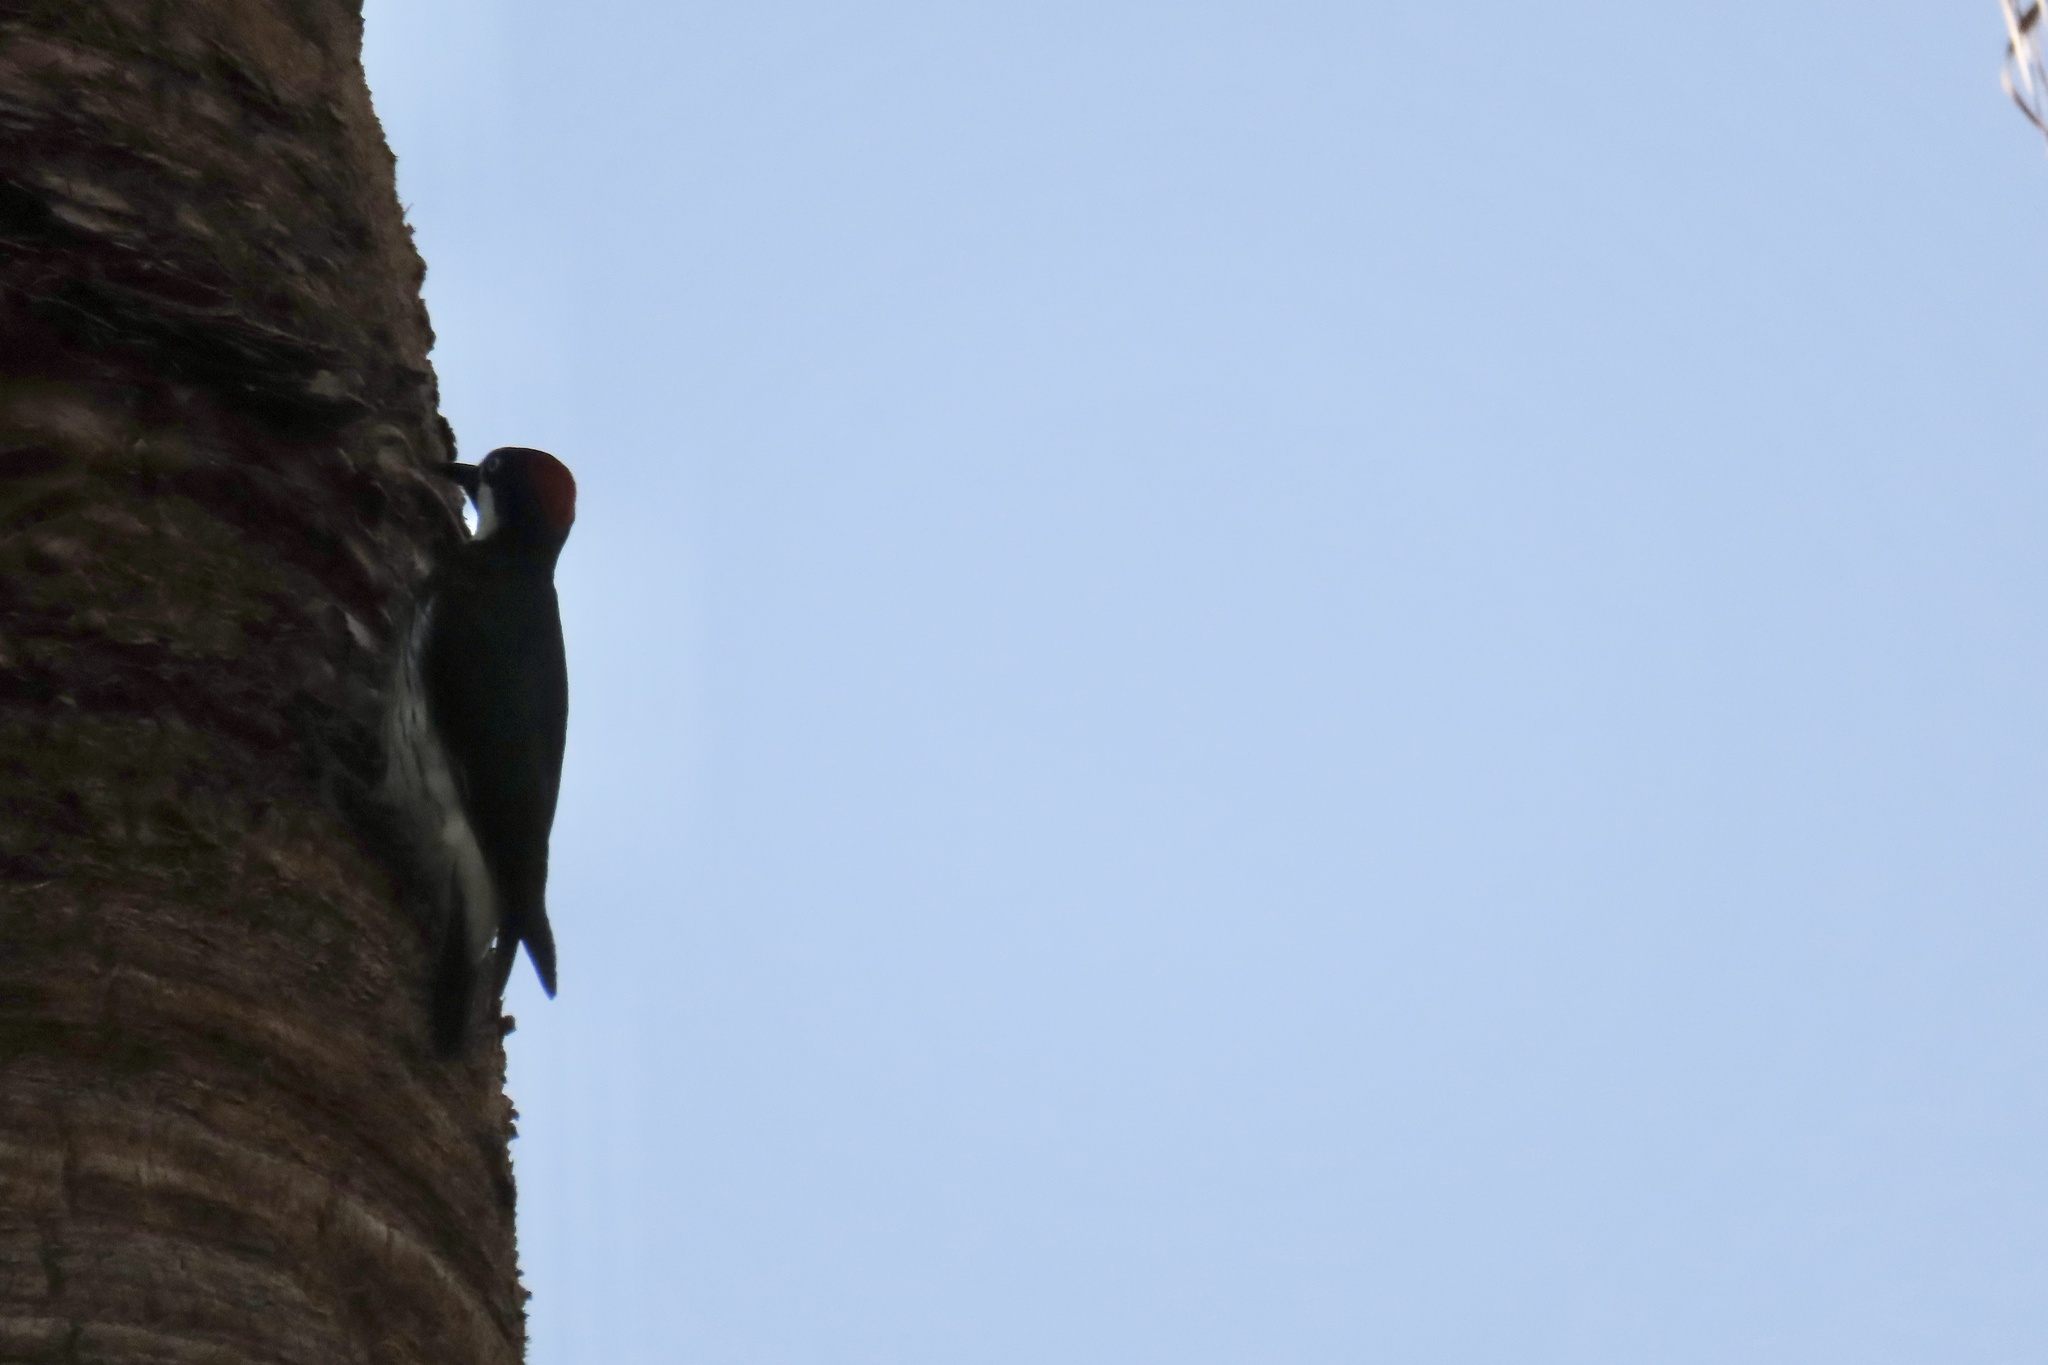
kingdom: Animalia
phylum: Chordata
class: Aves
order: Piciformes
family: Picidae
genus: Melanerpes
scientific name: Melanerpes formicivorus
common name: Acorn woodpecker
